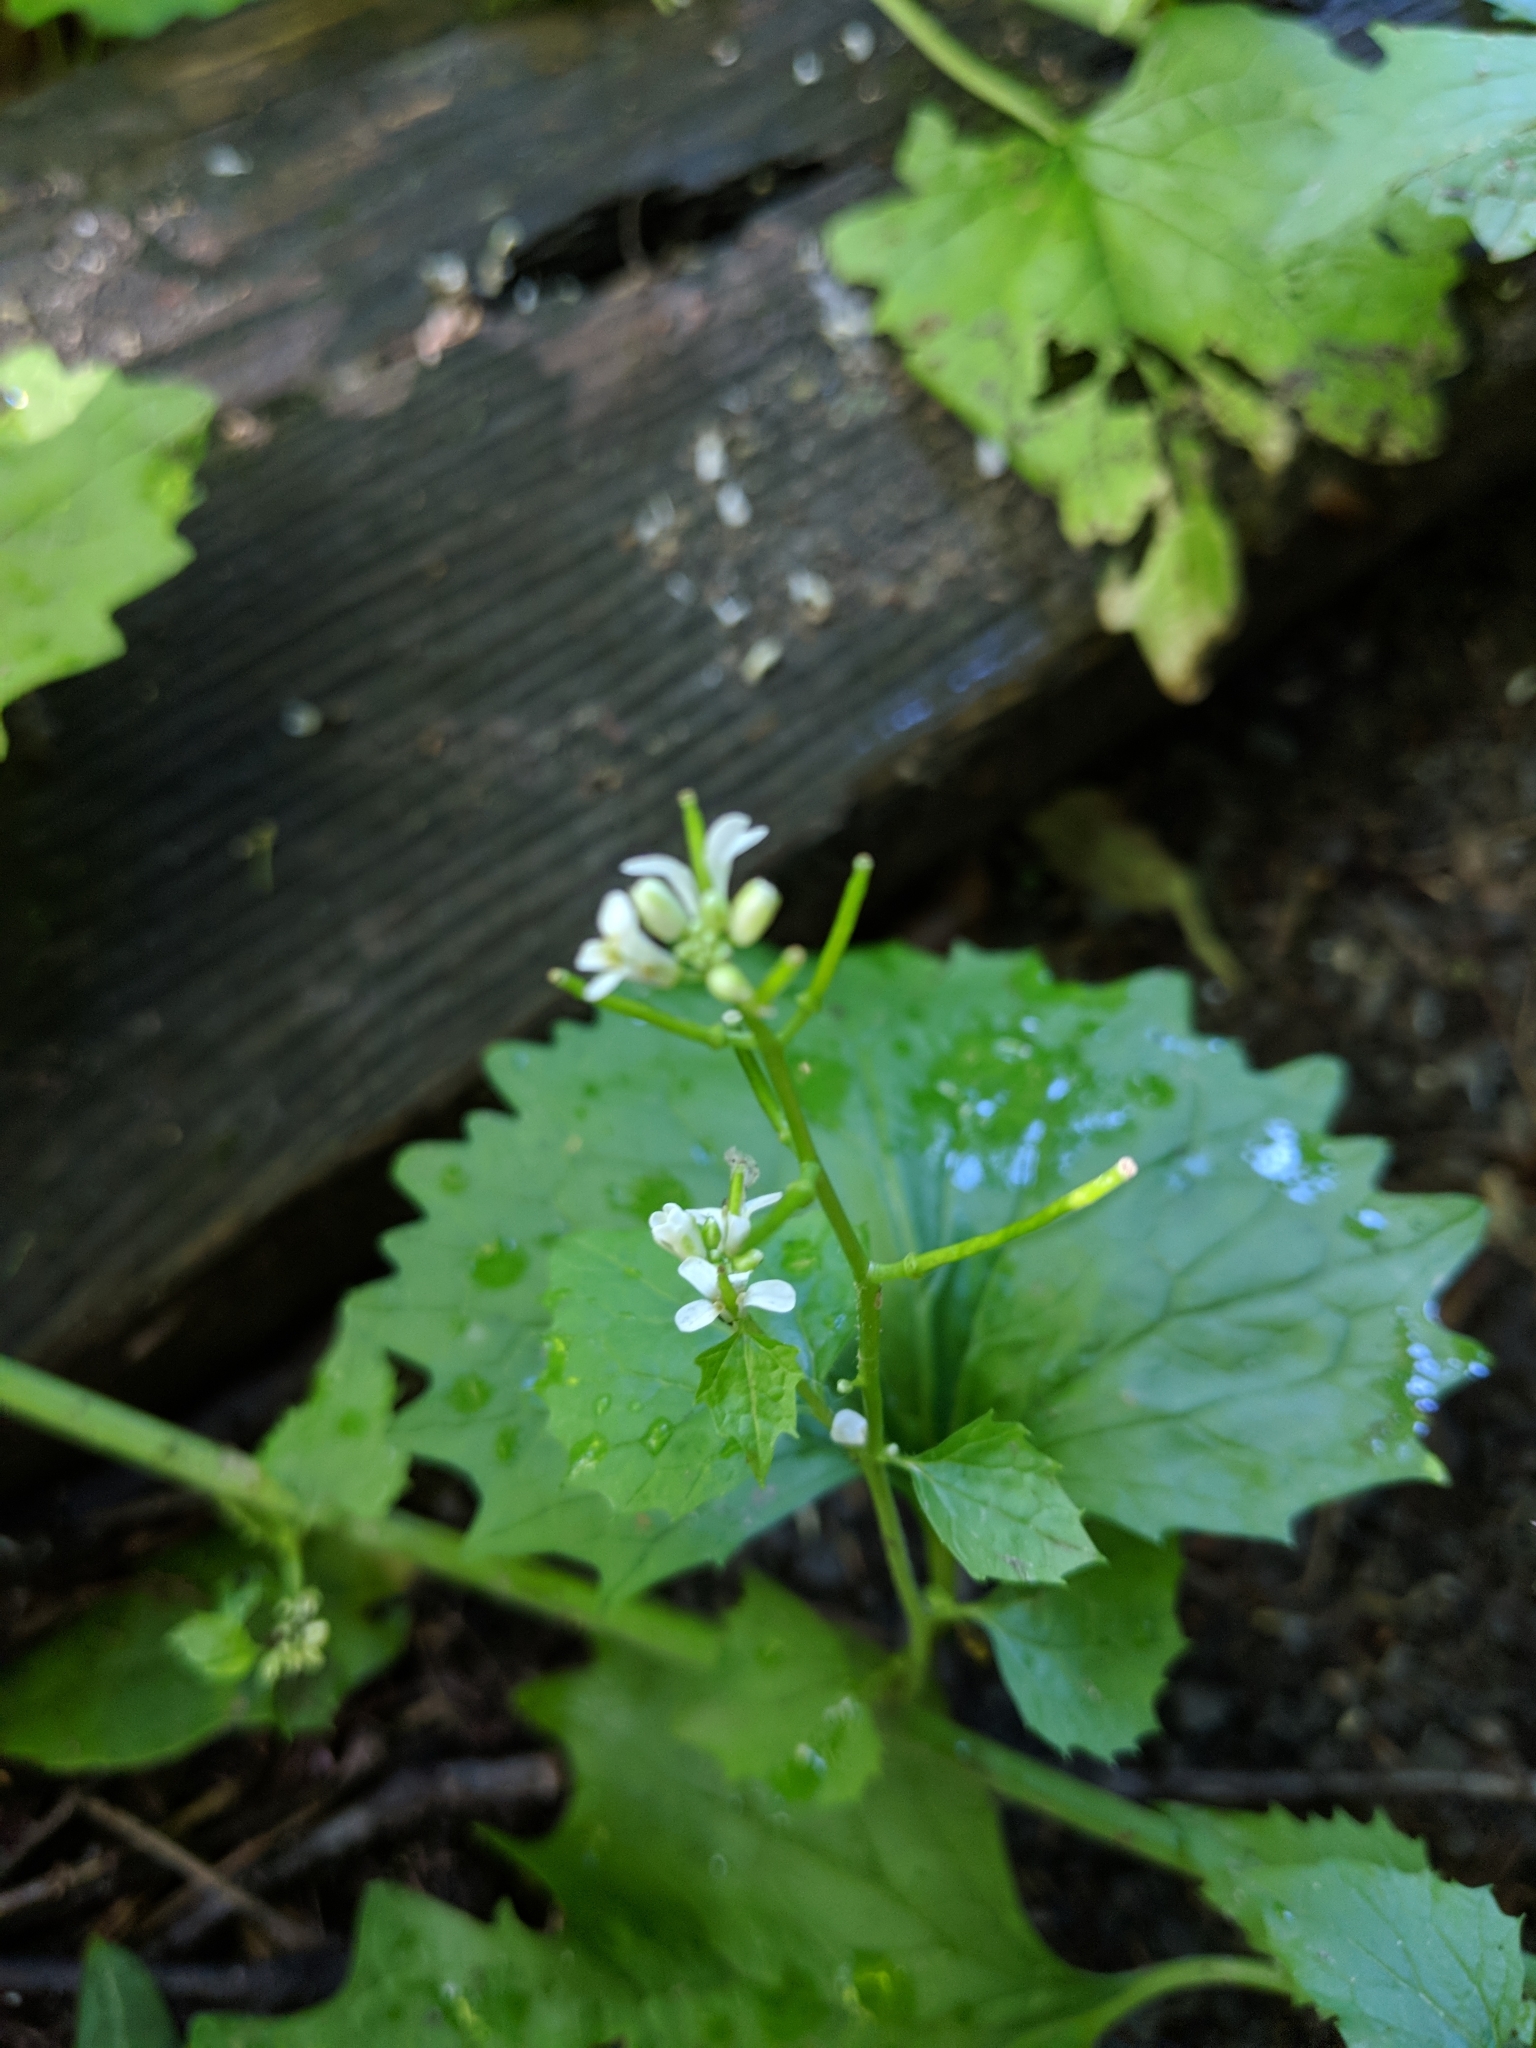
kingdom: Plantae
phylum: Tracheophyta
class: Magnoliopsida
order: Brassicales
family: Brassicaceae
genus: Alliaria
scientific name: Alliaria petiolata
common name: Garlic mustard
